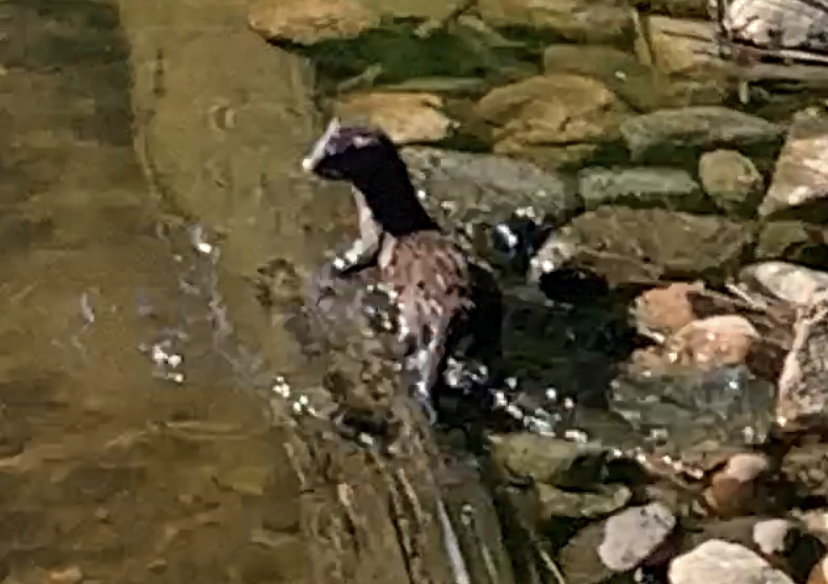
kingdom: Animalia
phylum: Chordata
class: Mammalia
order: Carnivora
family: Mustelidae
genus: Mustela
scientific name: Mustela
